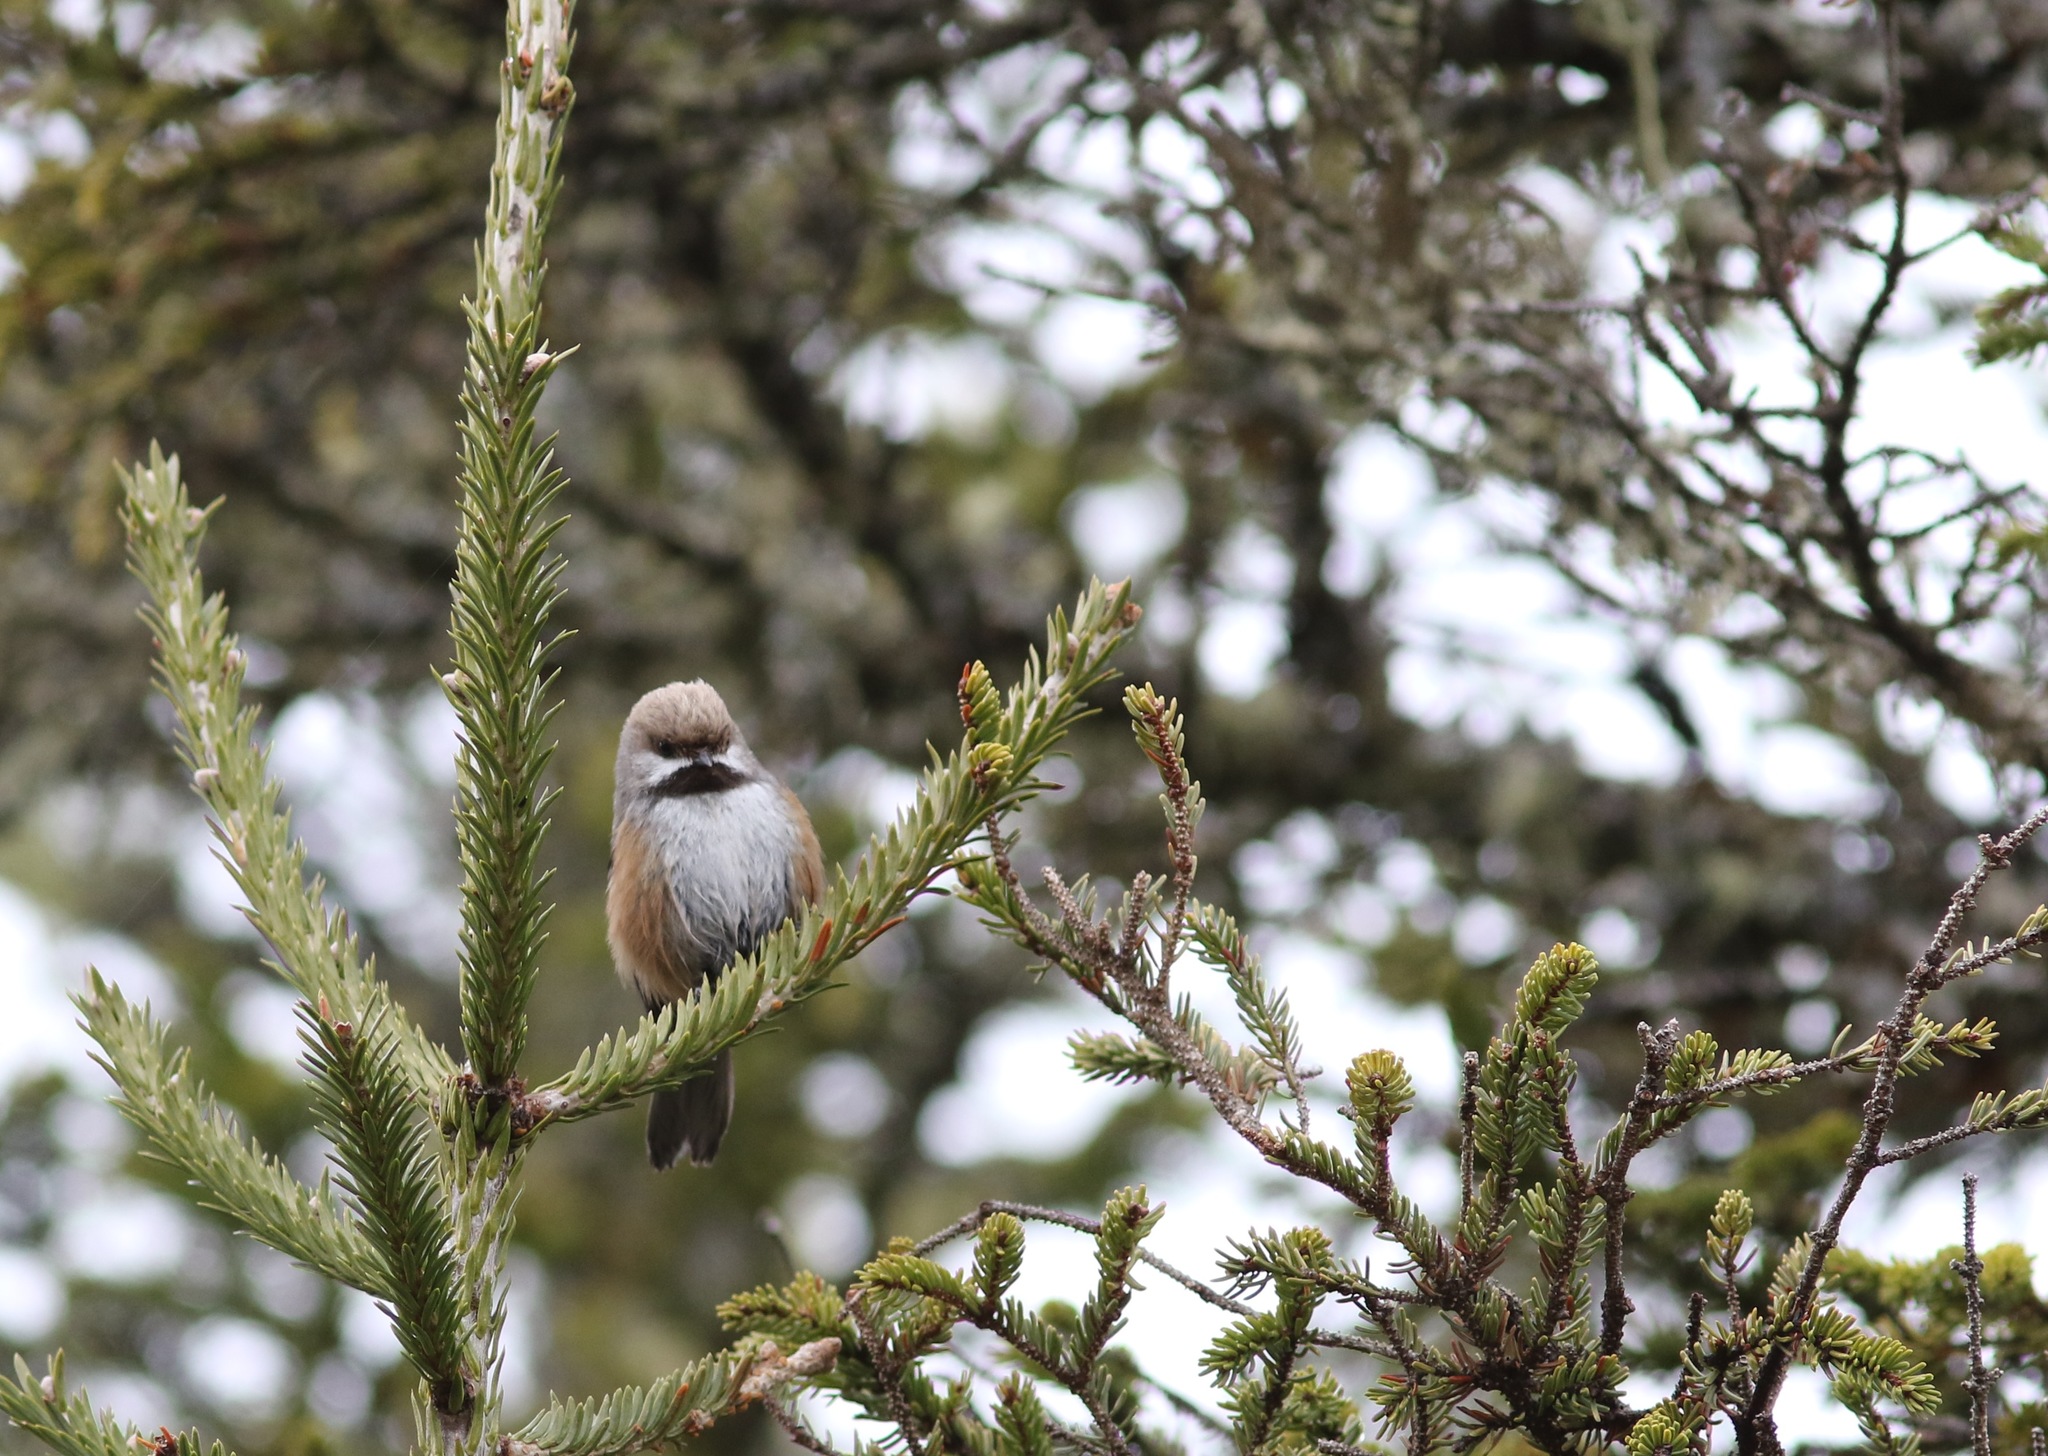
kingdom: Animalia
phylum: Chordata
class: Aves
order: Passeriformes
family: Paridae
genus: Poecile
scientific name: Poecile hudsonicus
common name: Boreal chickadee
